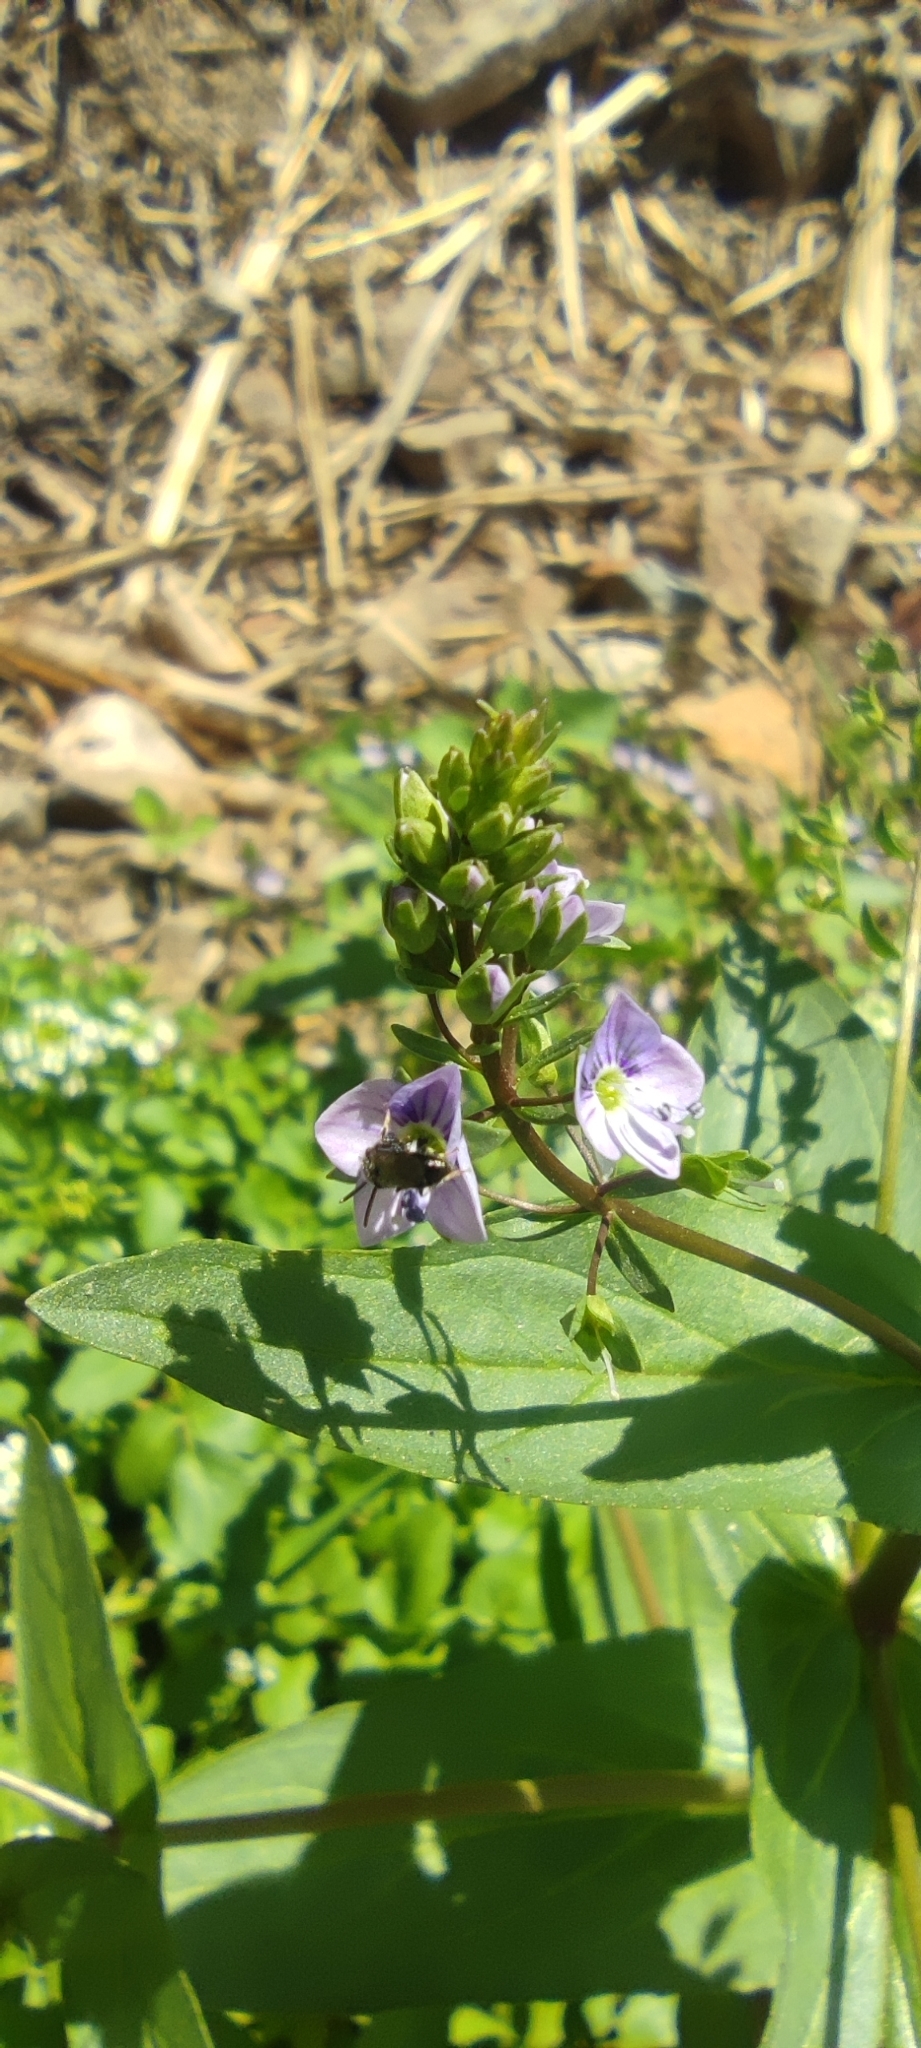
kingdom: Plantae
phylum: Tracheophyta
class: Magnoliopsida
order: Lamiales
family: Plantaginaceae
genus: Veronica
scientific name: Veronica anagallis-aquatica
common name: Water speedwell
